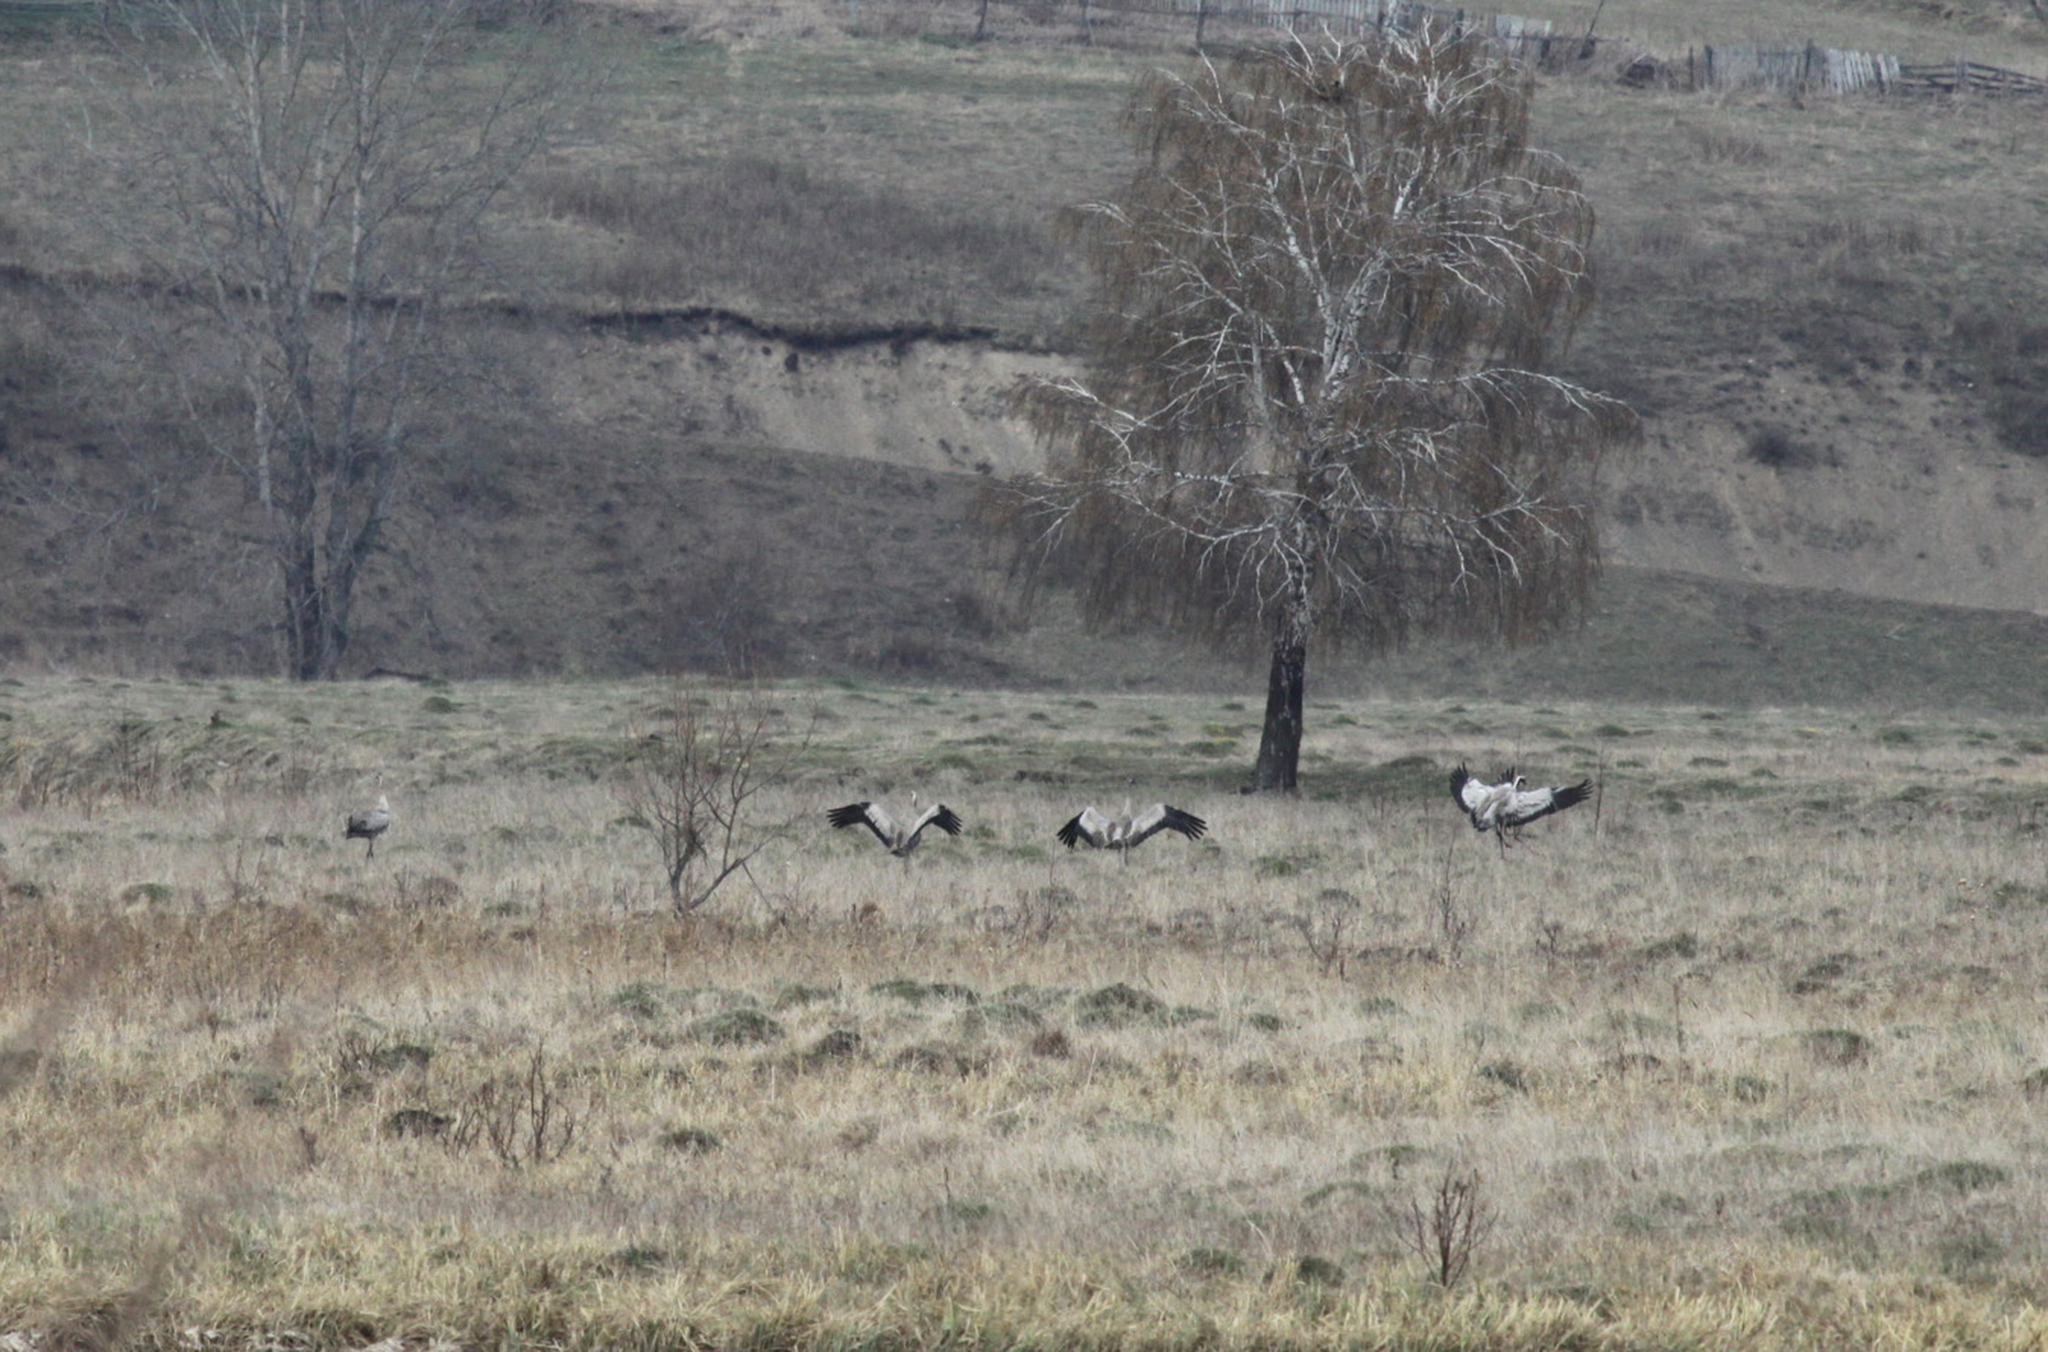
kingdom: Animalia
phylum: Chordata
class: Aves
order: Gruiformes
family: Gruidae
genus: Grus
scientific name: Grus grus
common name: Common crane
